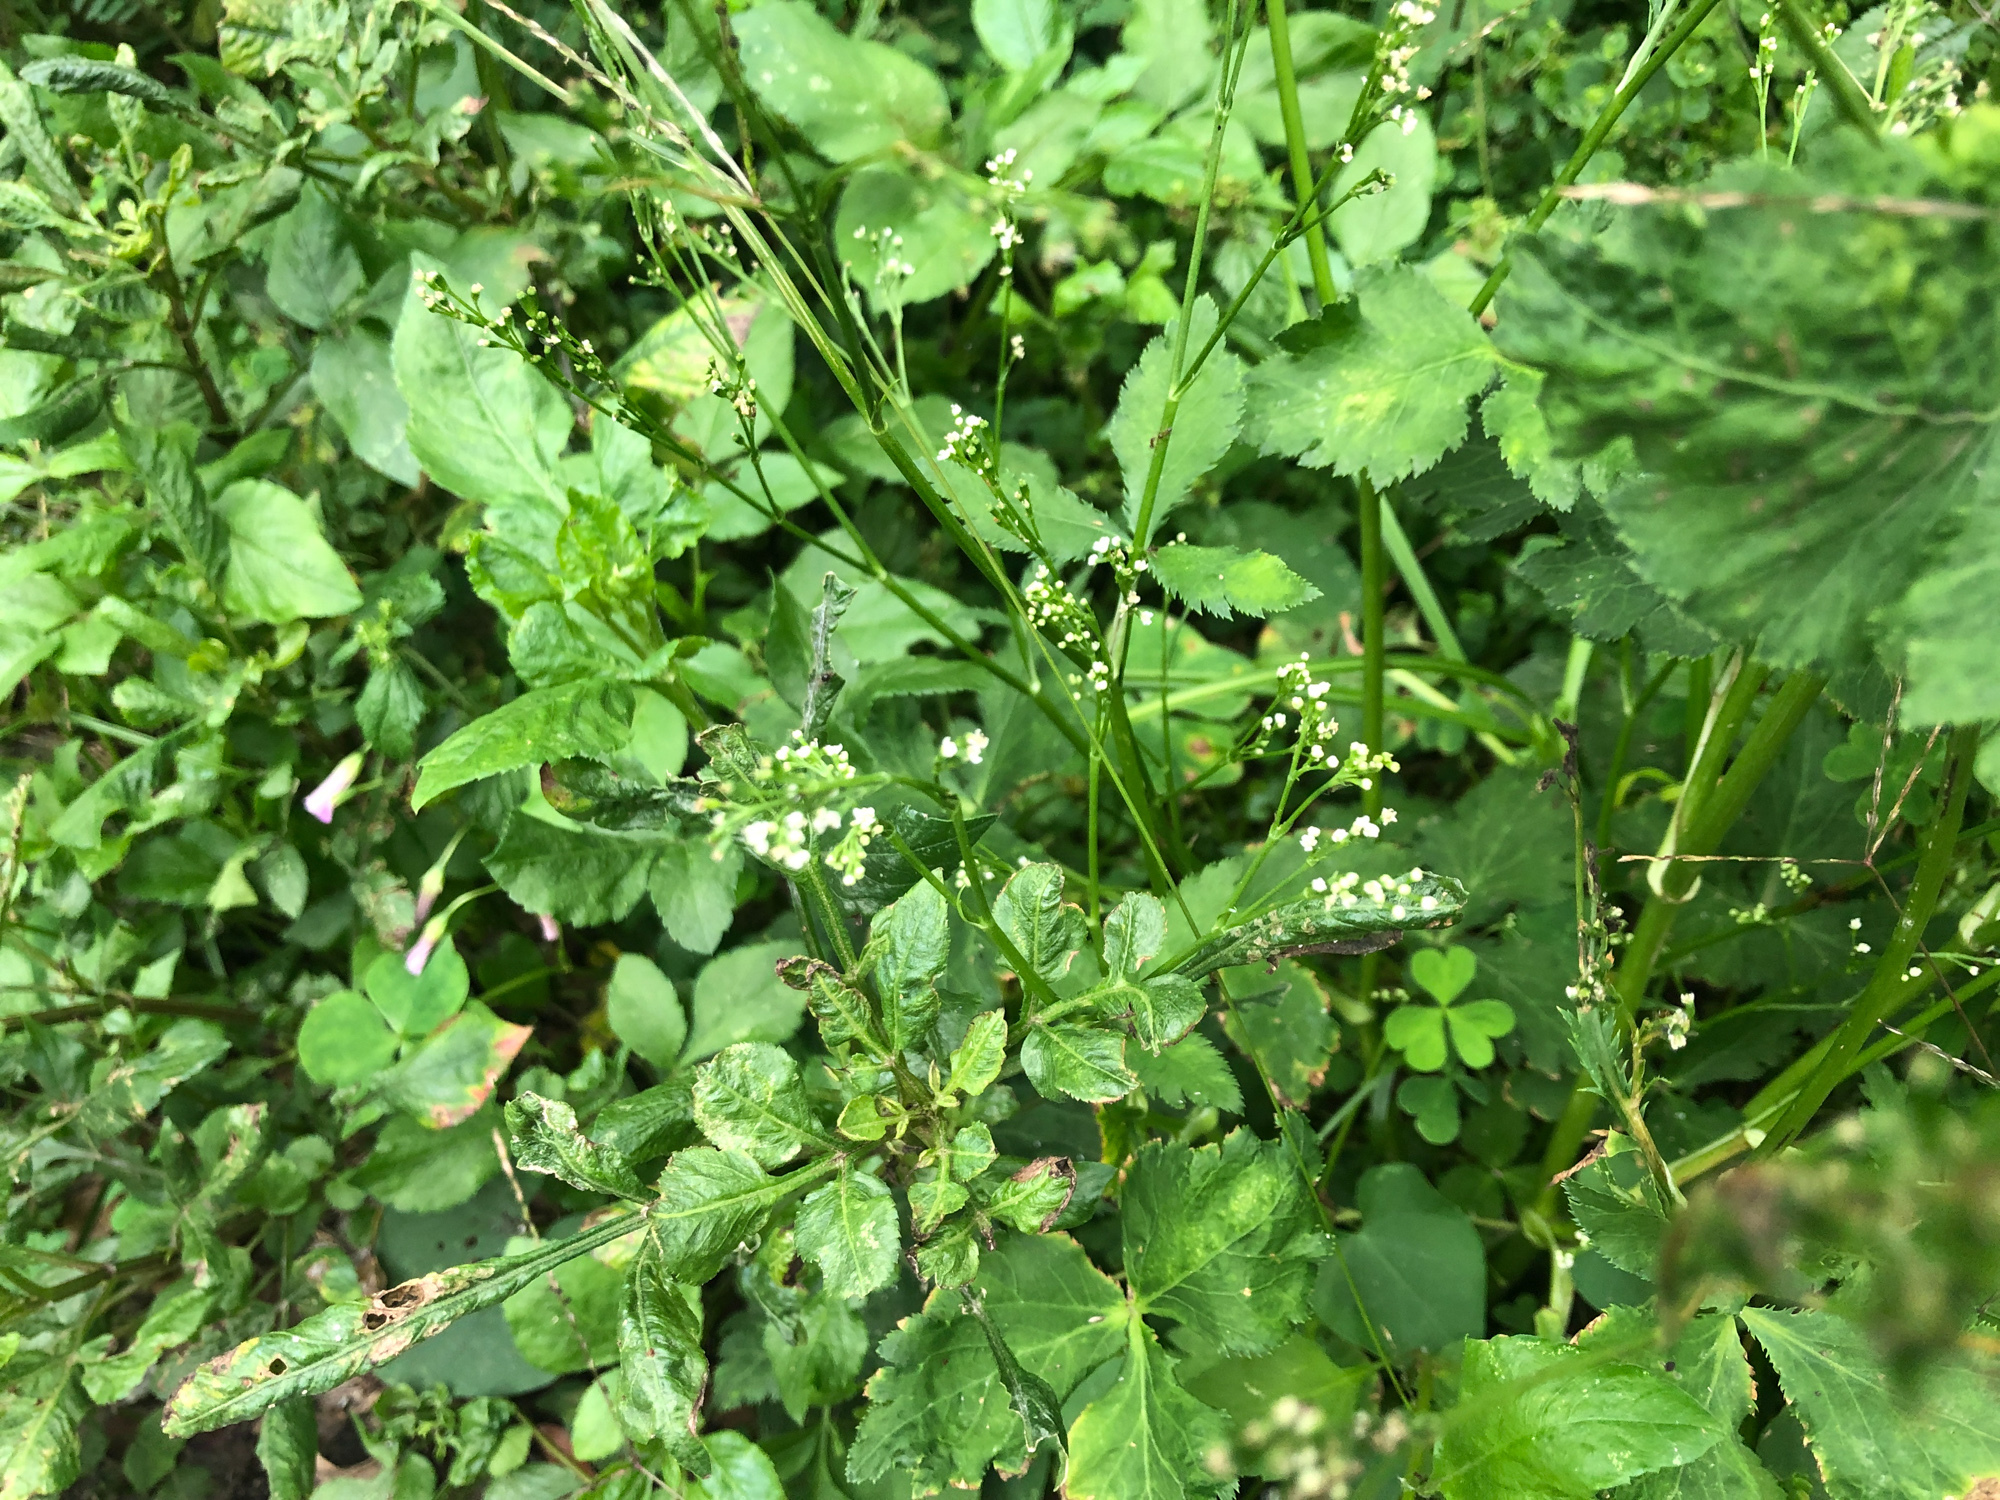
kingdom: Plantae
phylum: Tracheophyta
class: Magnoliopsida
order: Apiales
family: Apiaceae
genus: Cryptotaenia
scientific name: Cryptotaenia japonica
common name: Japanese cryptotaenia
